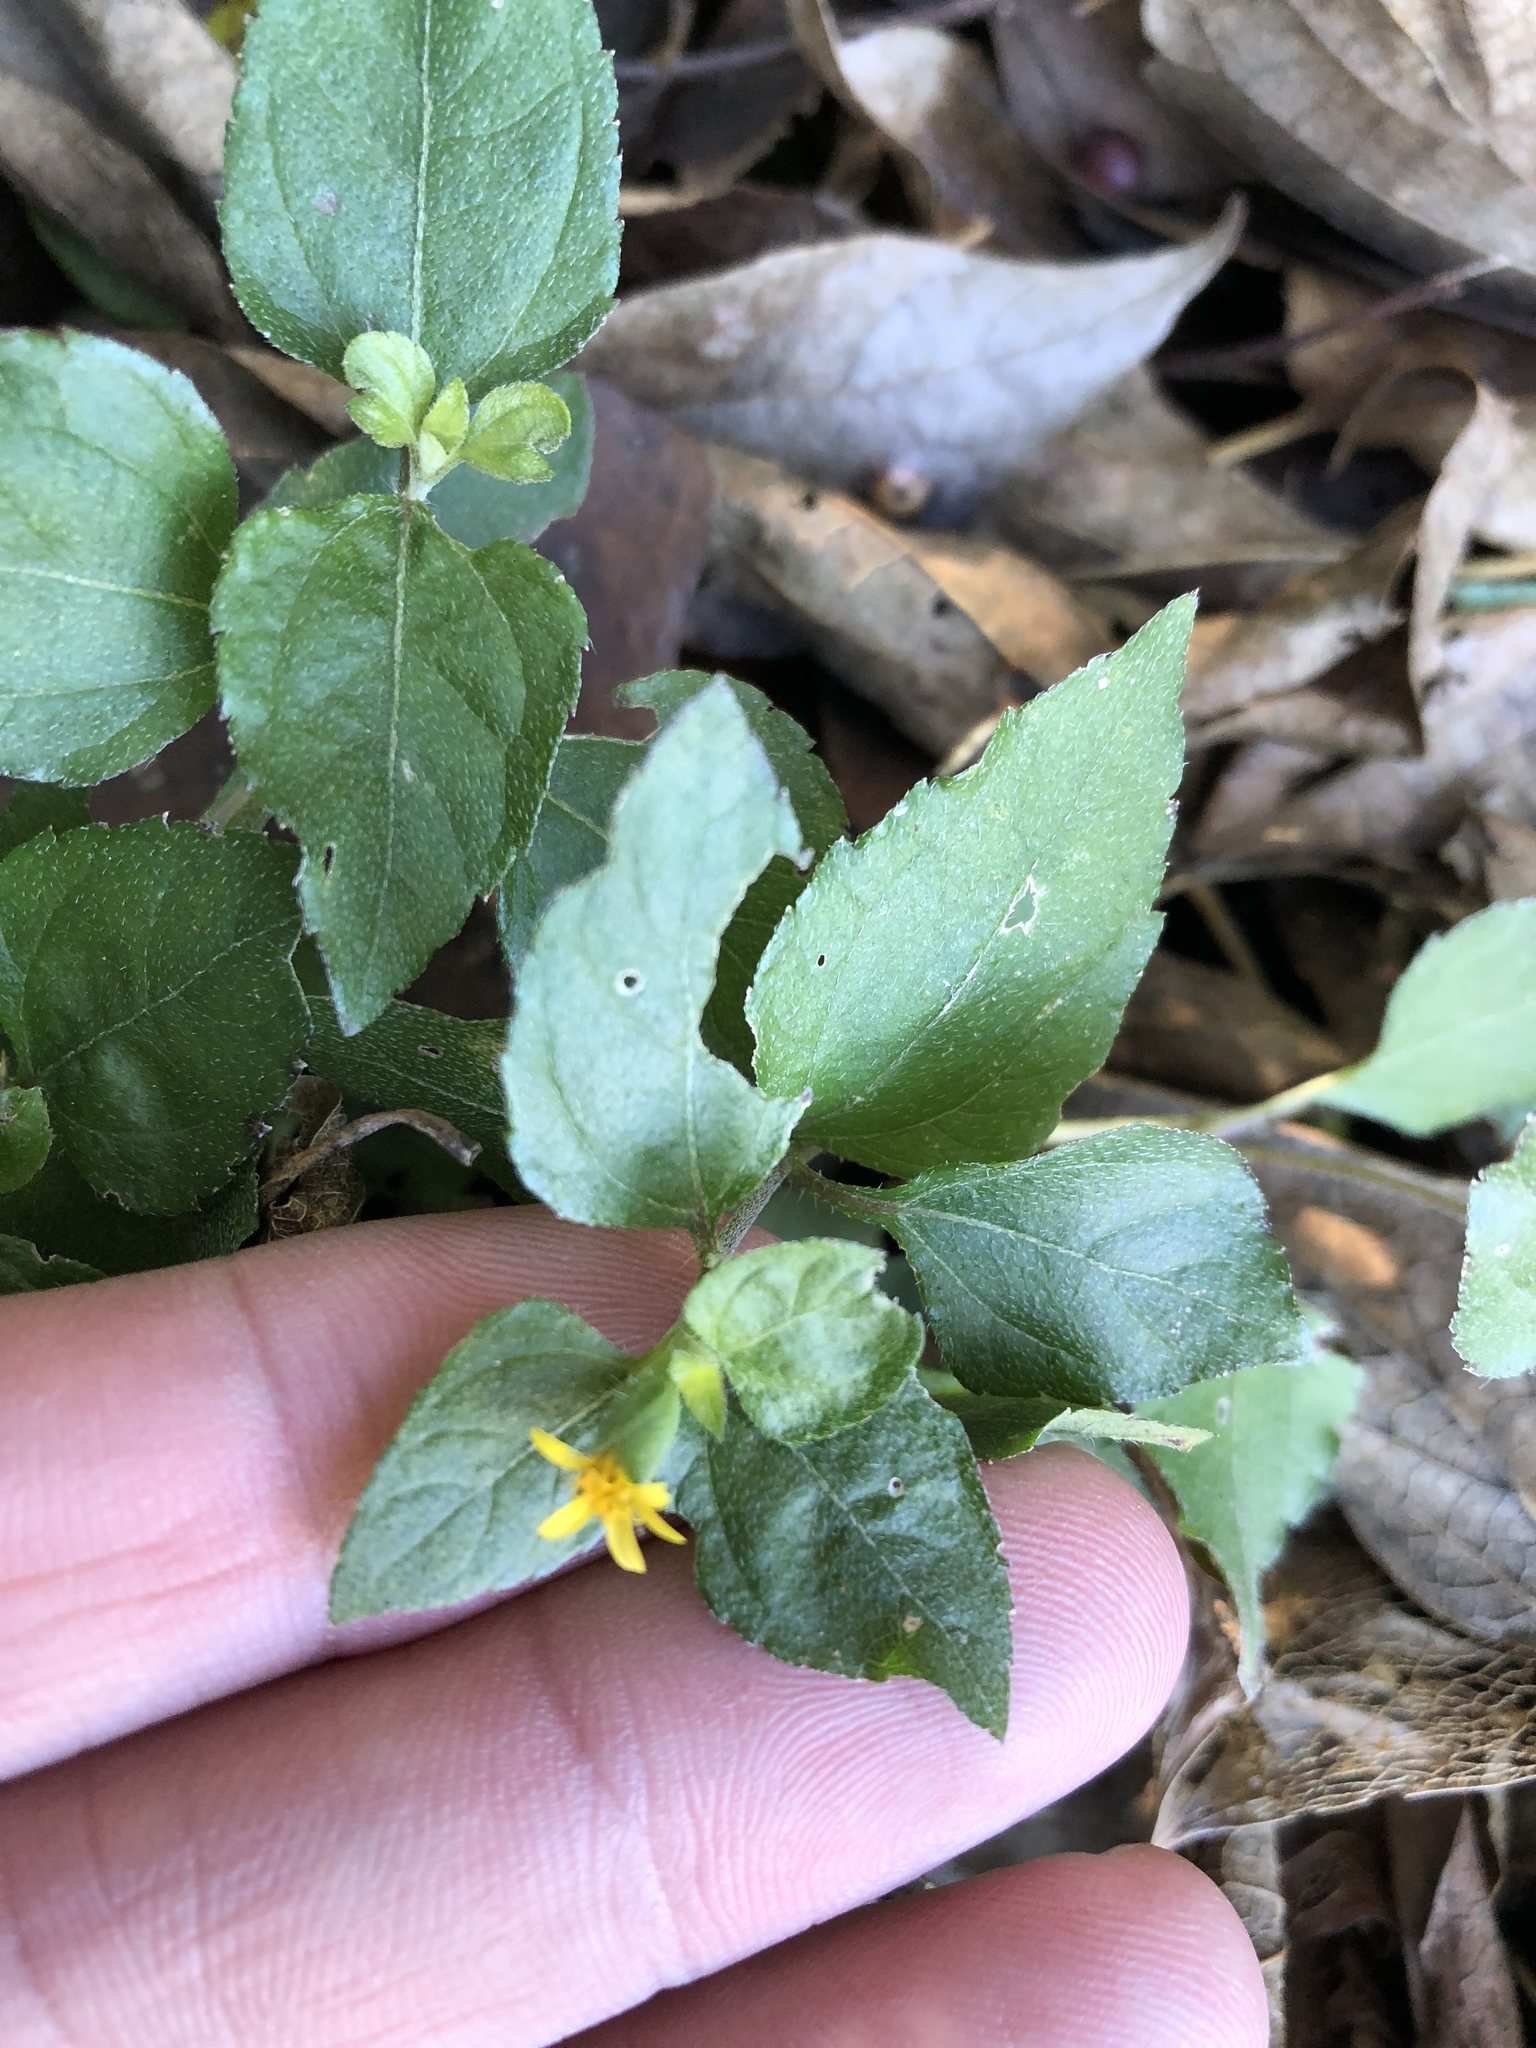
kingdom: Plantae
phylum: Tracheophyta
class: Magnoliopsida
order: Asterales
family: Asteraceae
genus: Calyptocarpus
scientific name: Calyptocarpus vialis
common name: Straggler daisy
